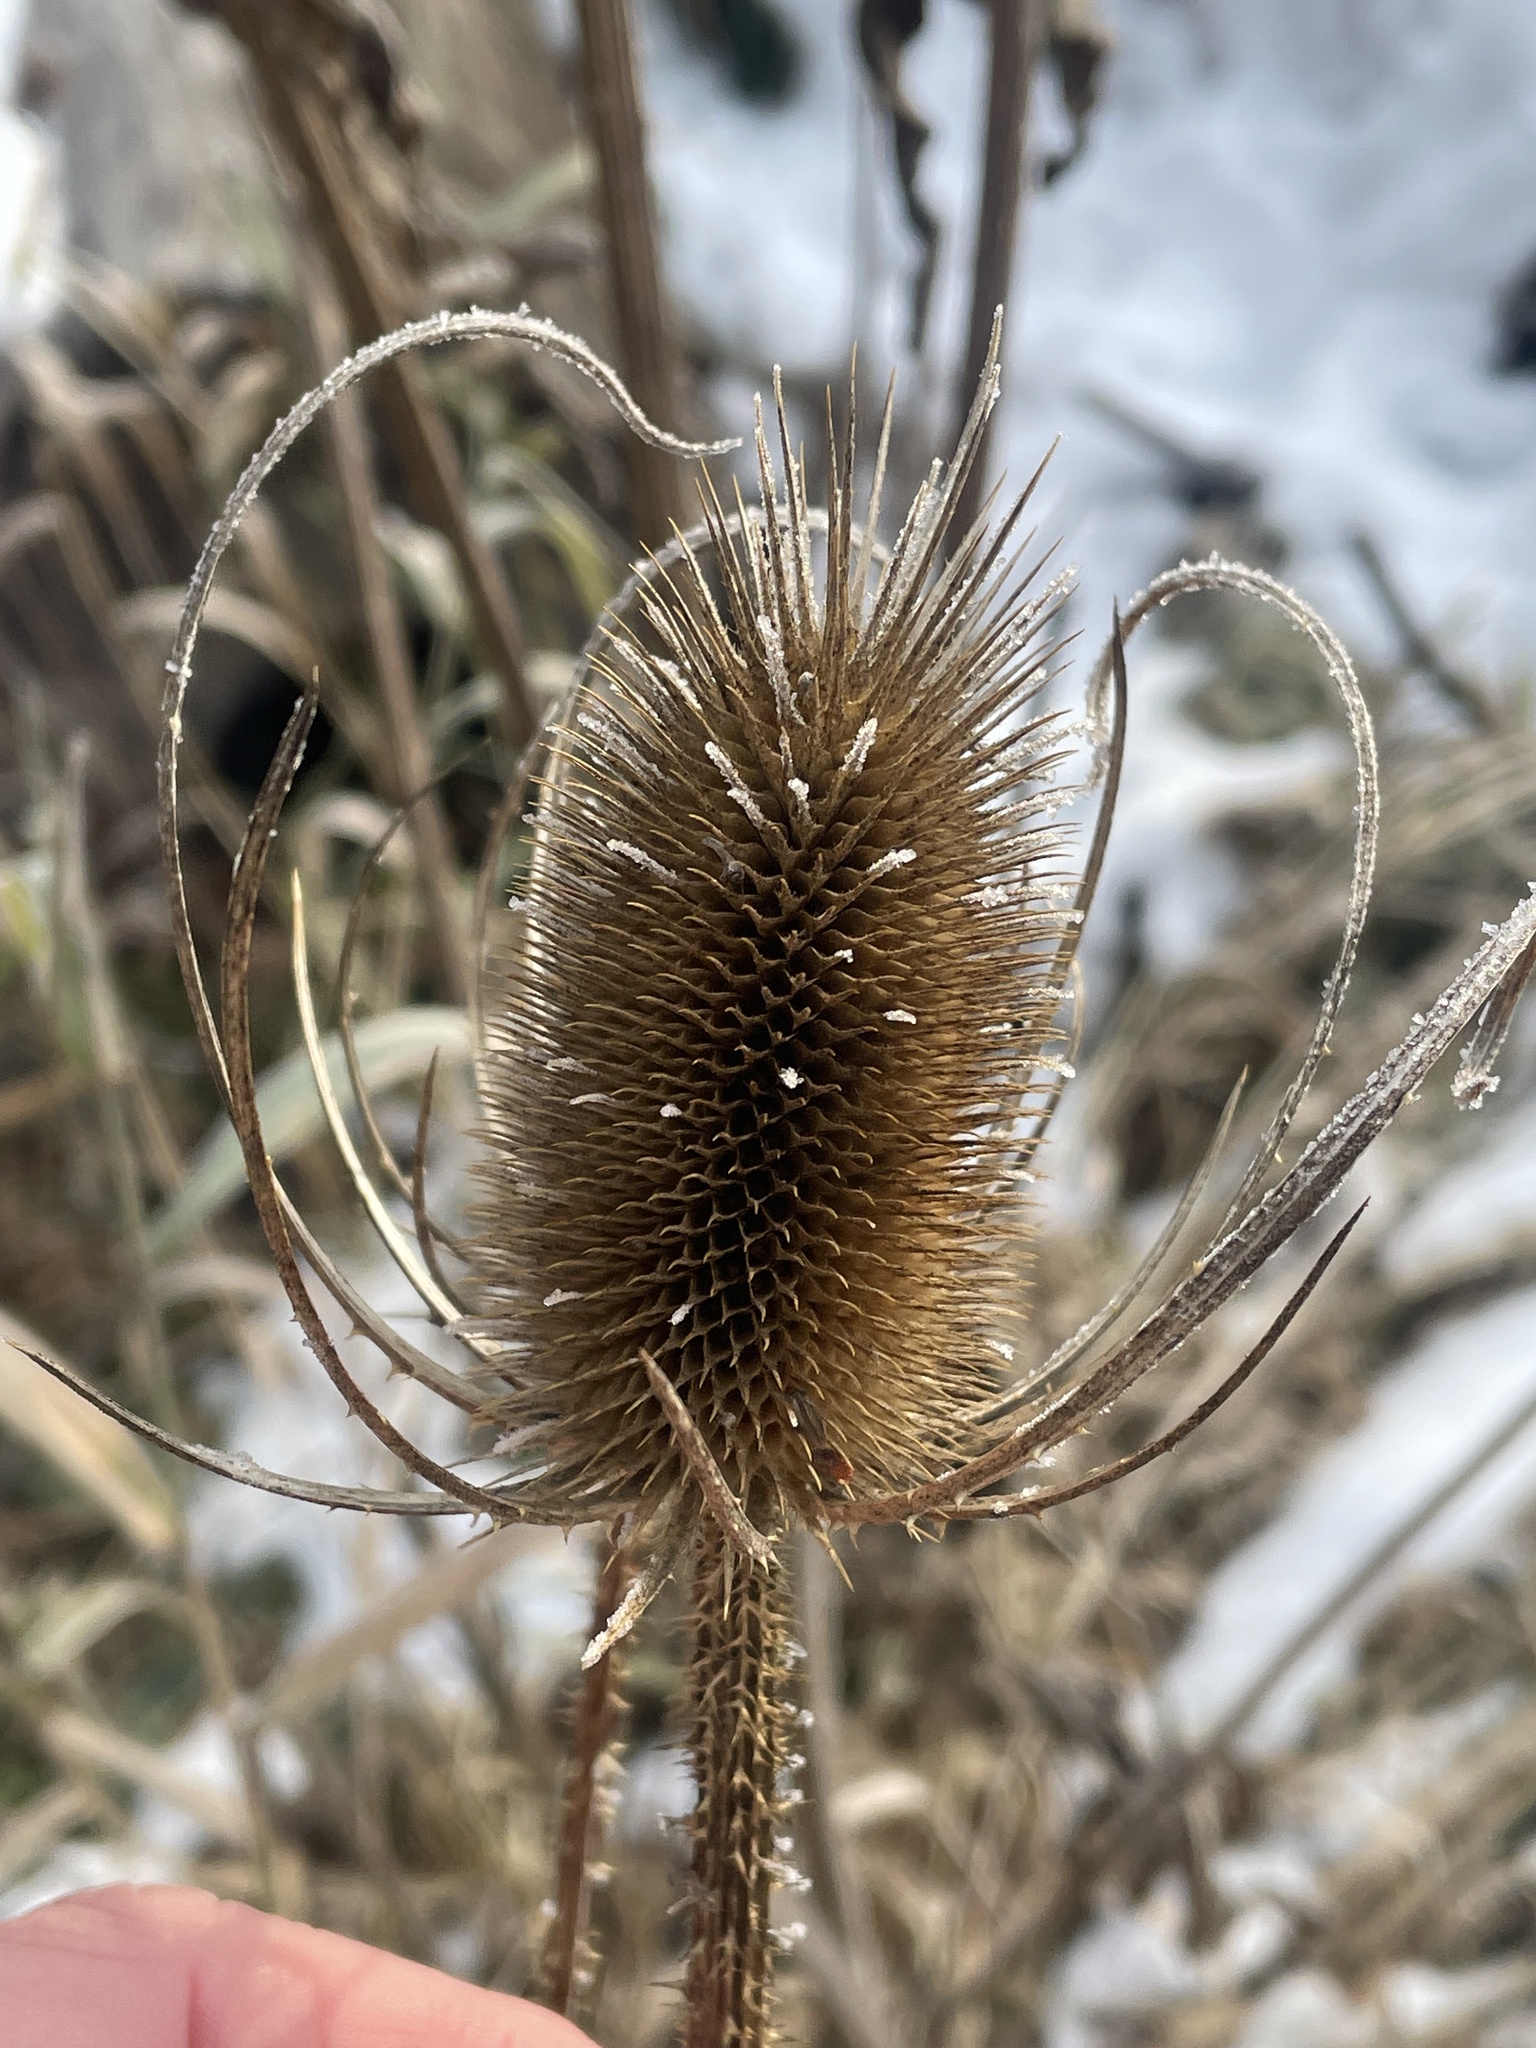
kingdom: Plantae
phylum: Tracheophyta
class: Magnoliopsida
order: Dipsacales
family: Caprifoliaceae
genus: Dipsacus
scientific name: Dipsacus fullonum
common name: Teasel
